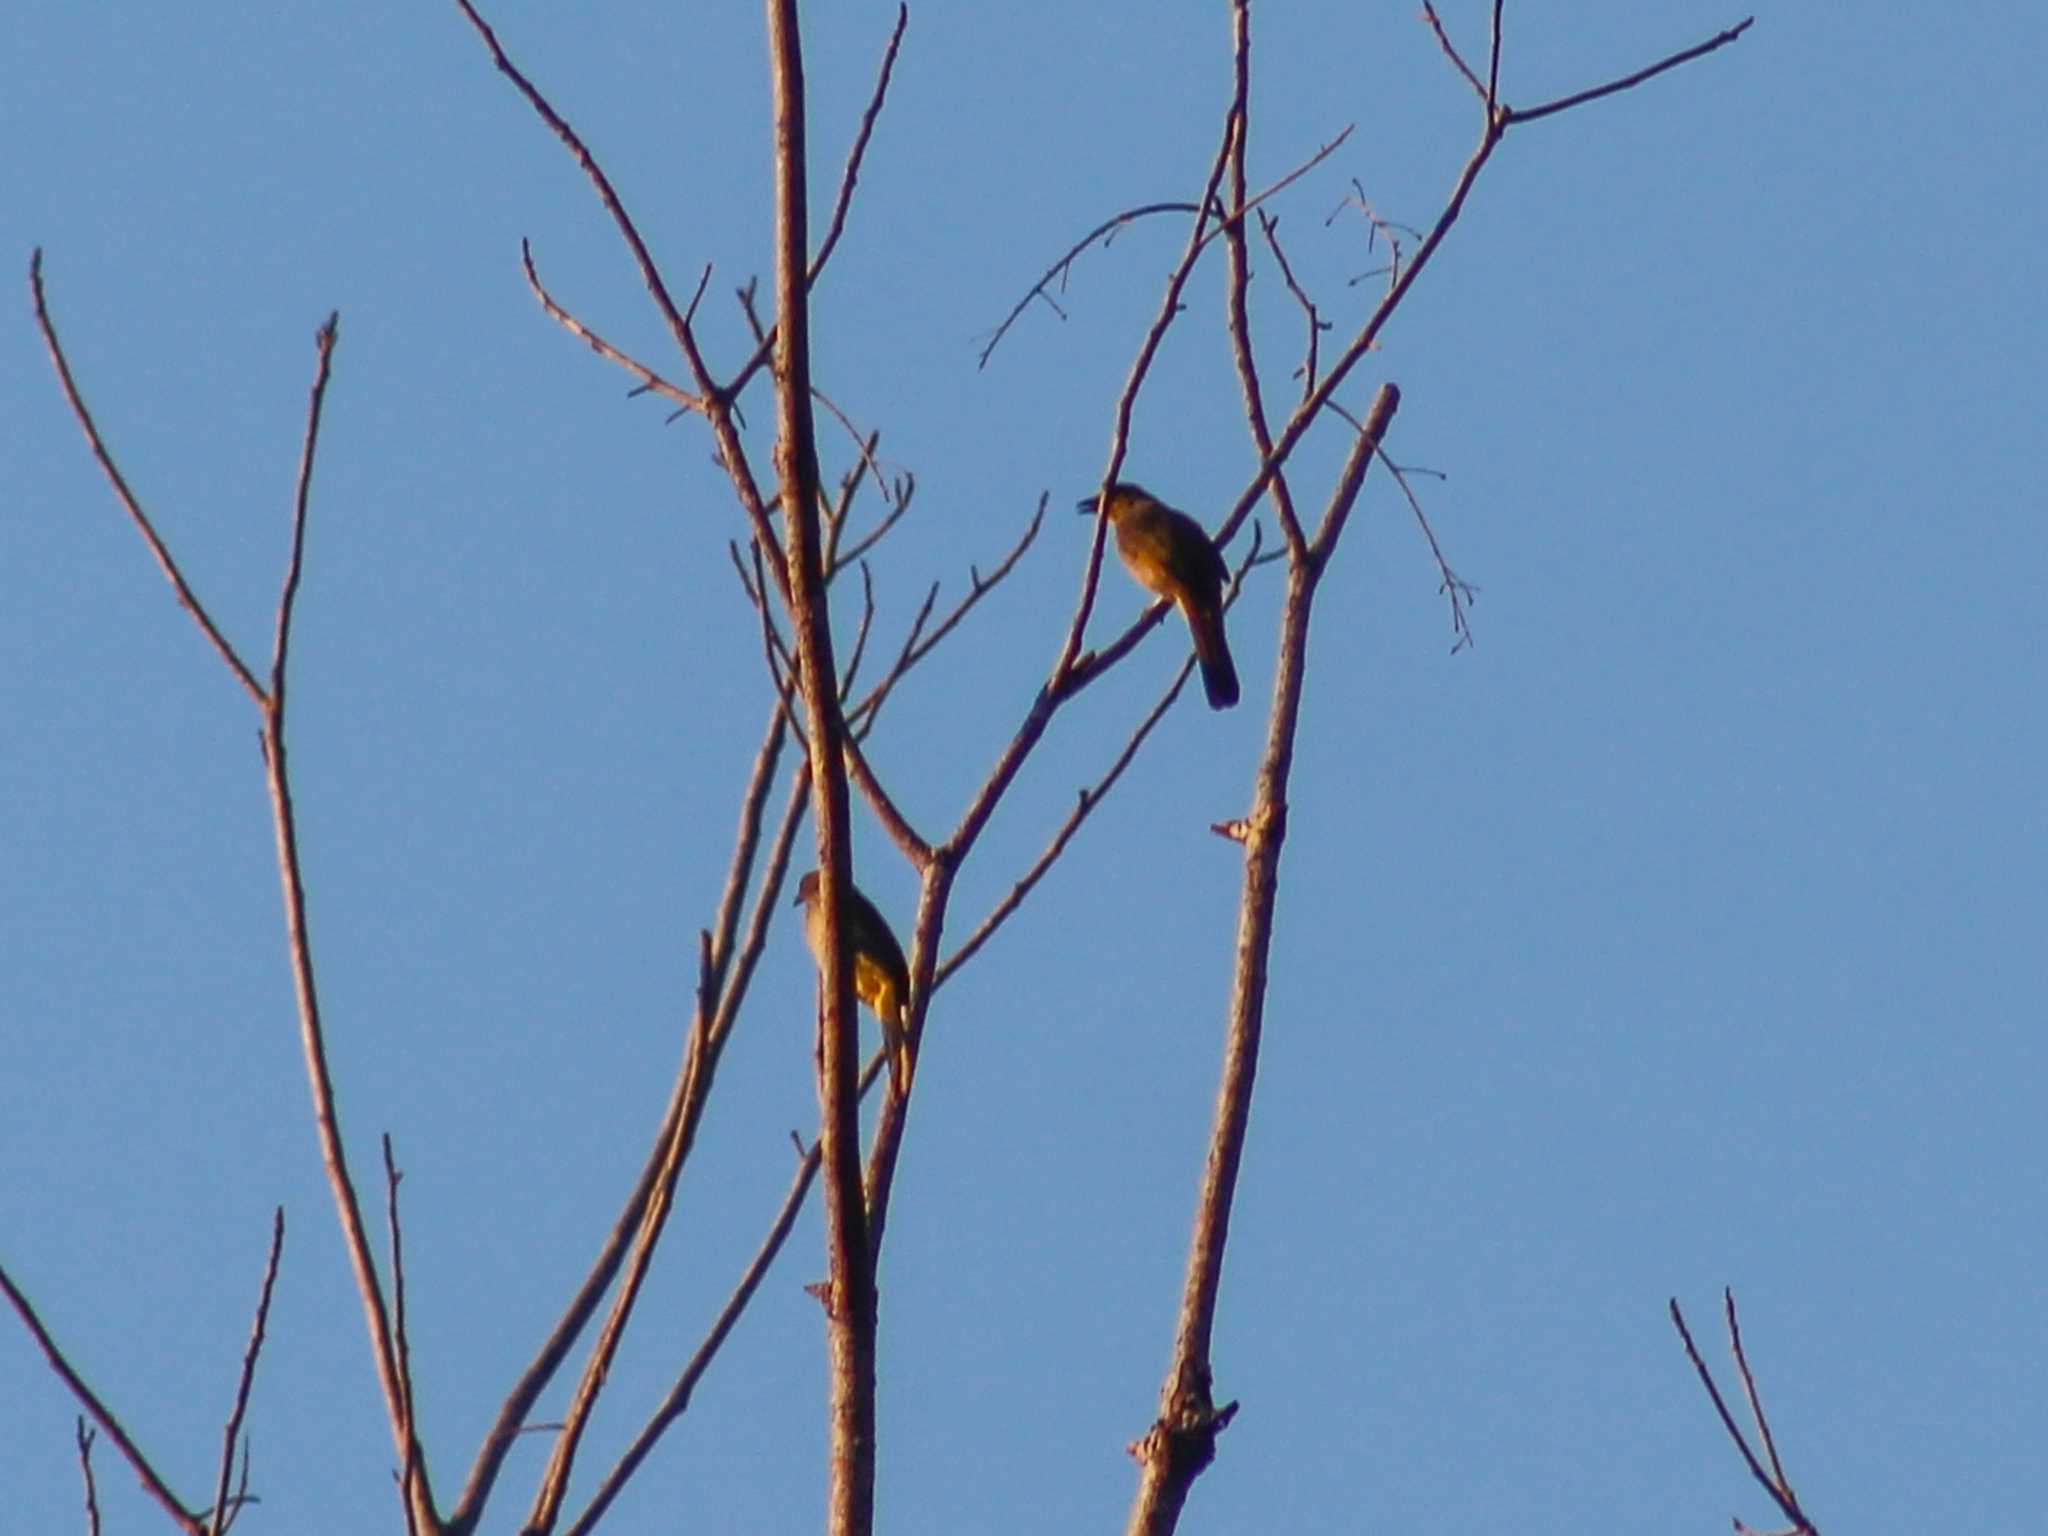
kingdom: Animalia
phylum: Chordata
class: Aves
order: Passeriformes
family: Pycnonotidae
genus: Pycnonotus
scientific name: Pycnonotus finlaysoni
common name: Stripe-throated bulbul
